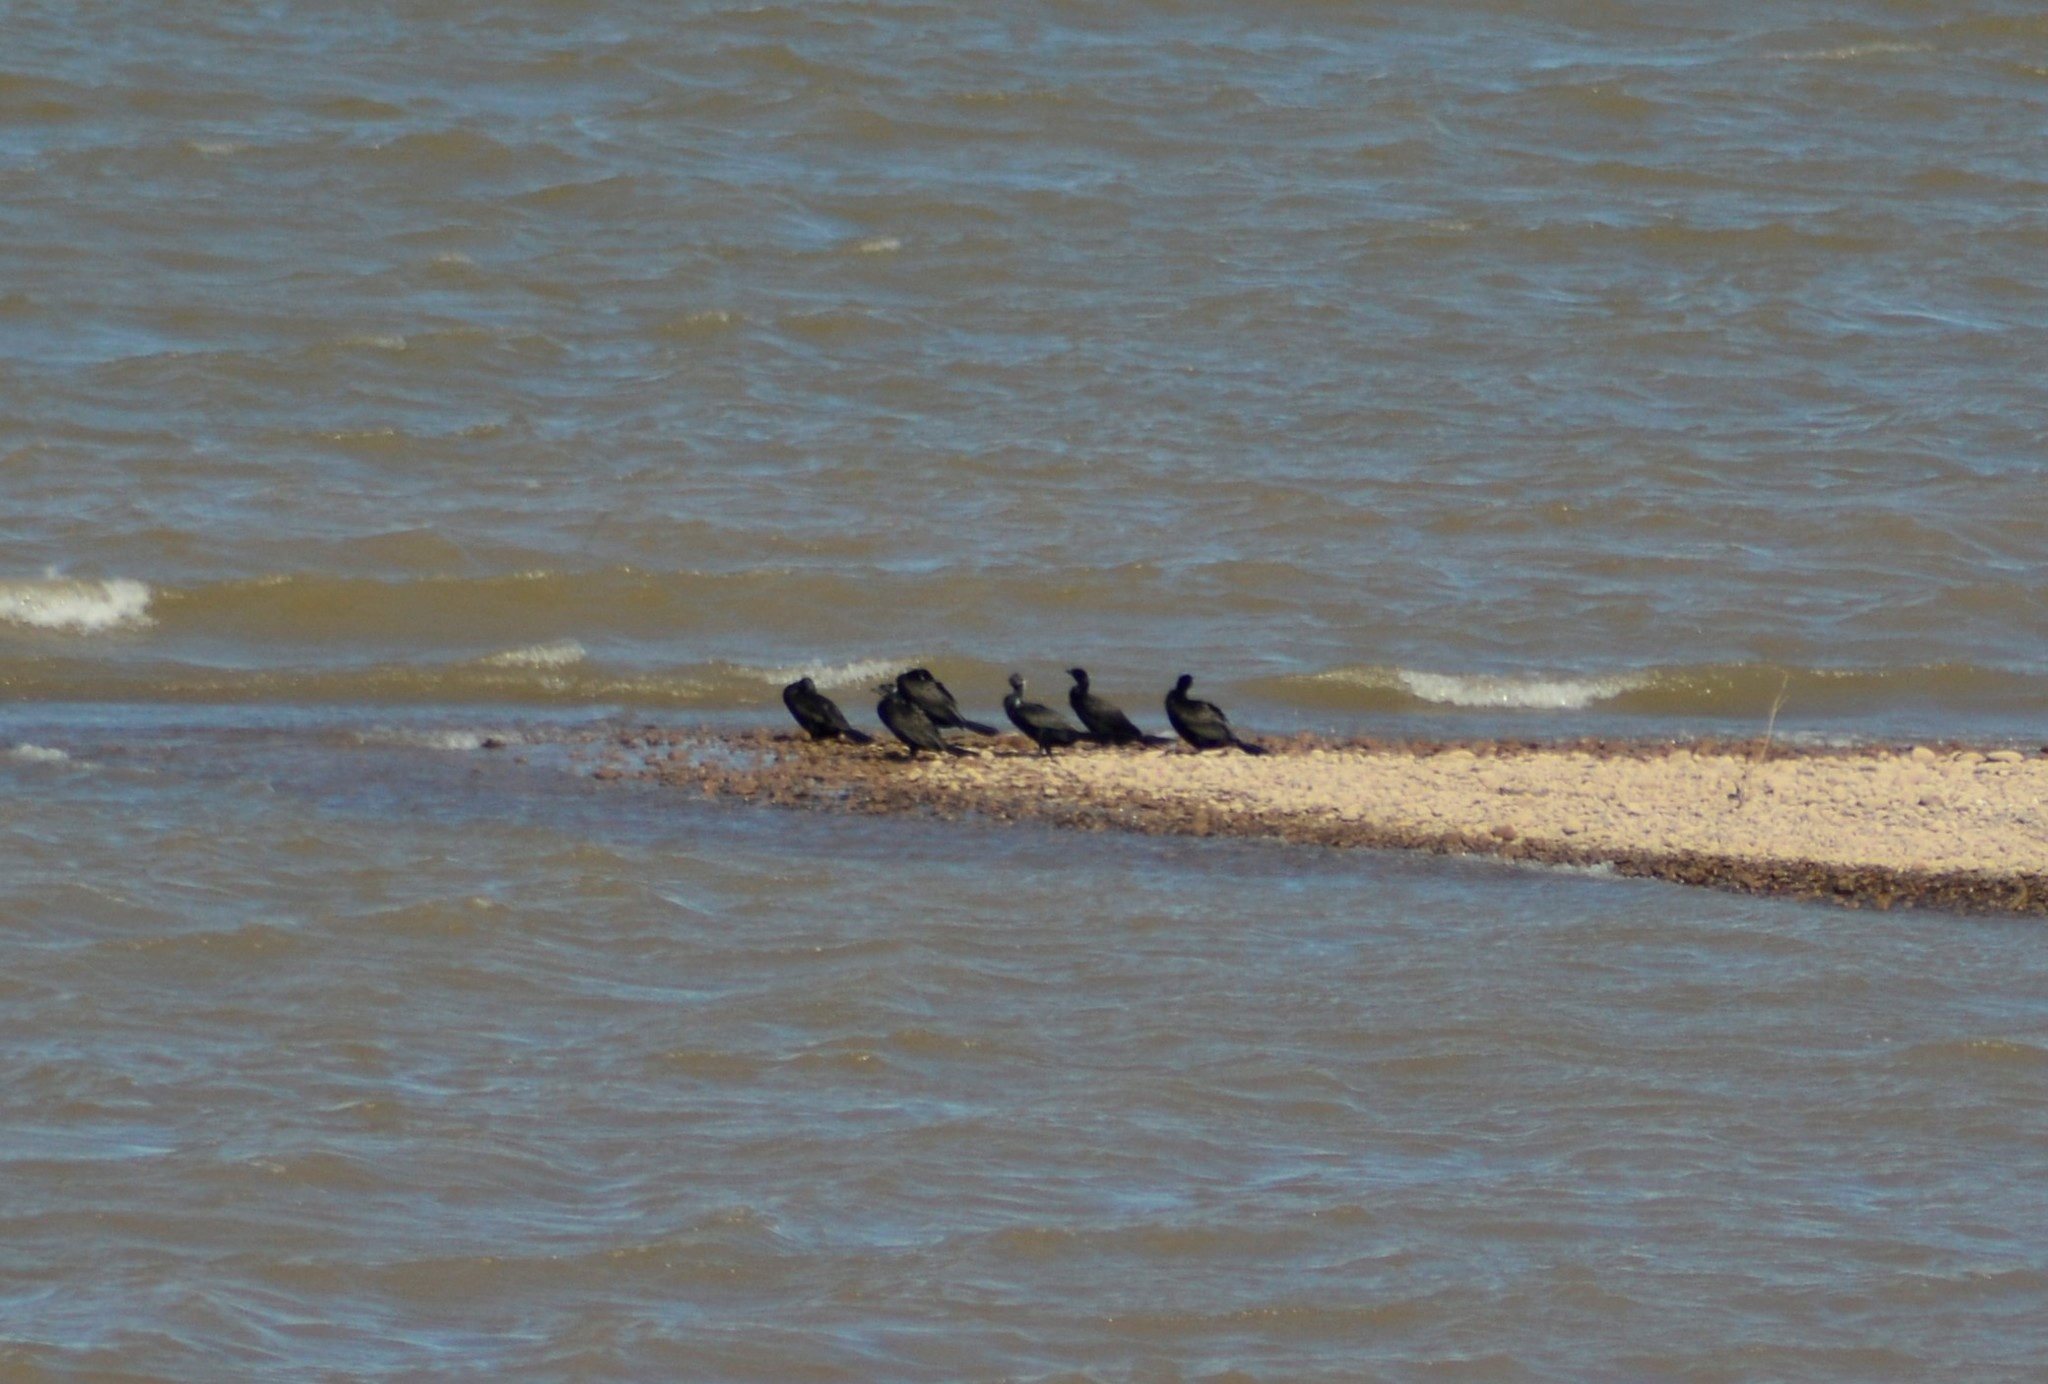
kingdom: Animalia
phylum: Chordata
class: Aves
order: Suliformes
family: Phalacrocoracidae
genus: Phalacrocorax
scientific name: Phalacrocorax brasilianus
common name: Neotropic cormorant
